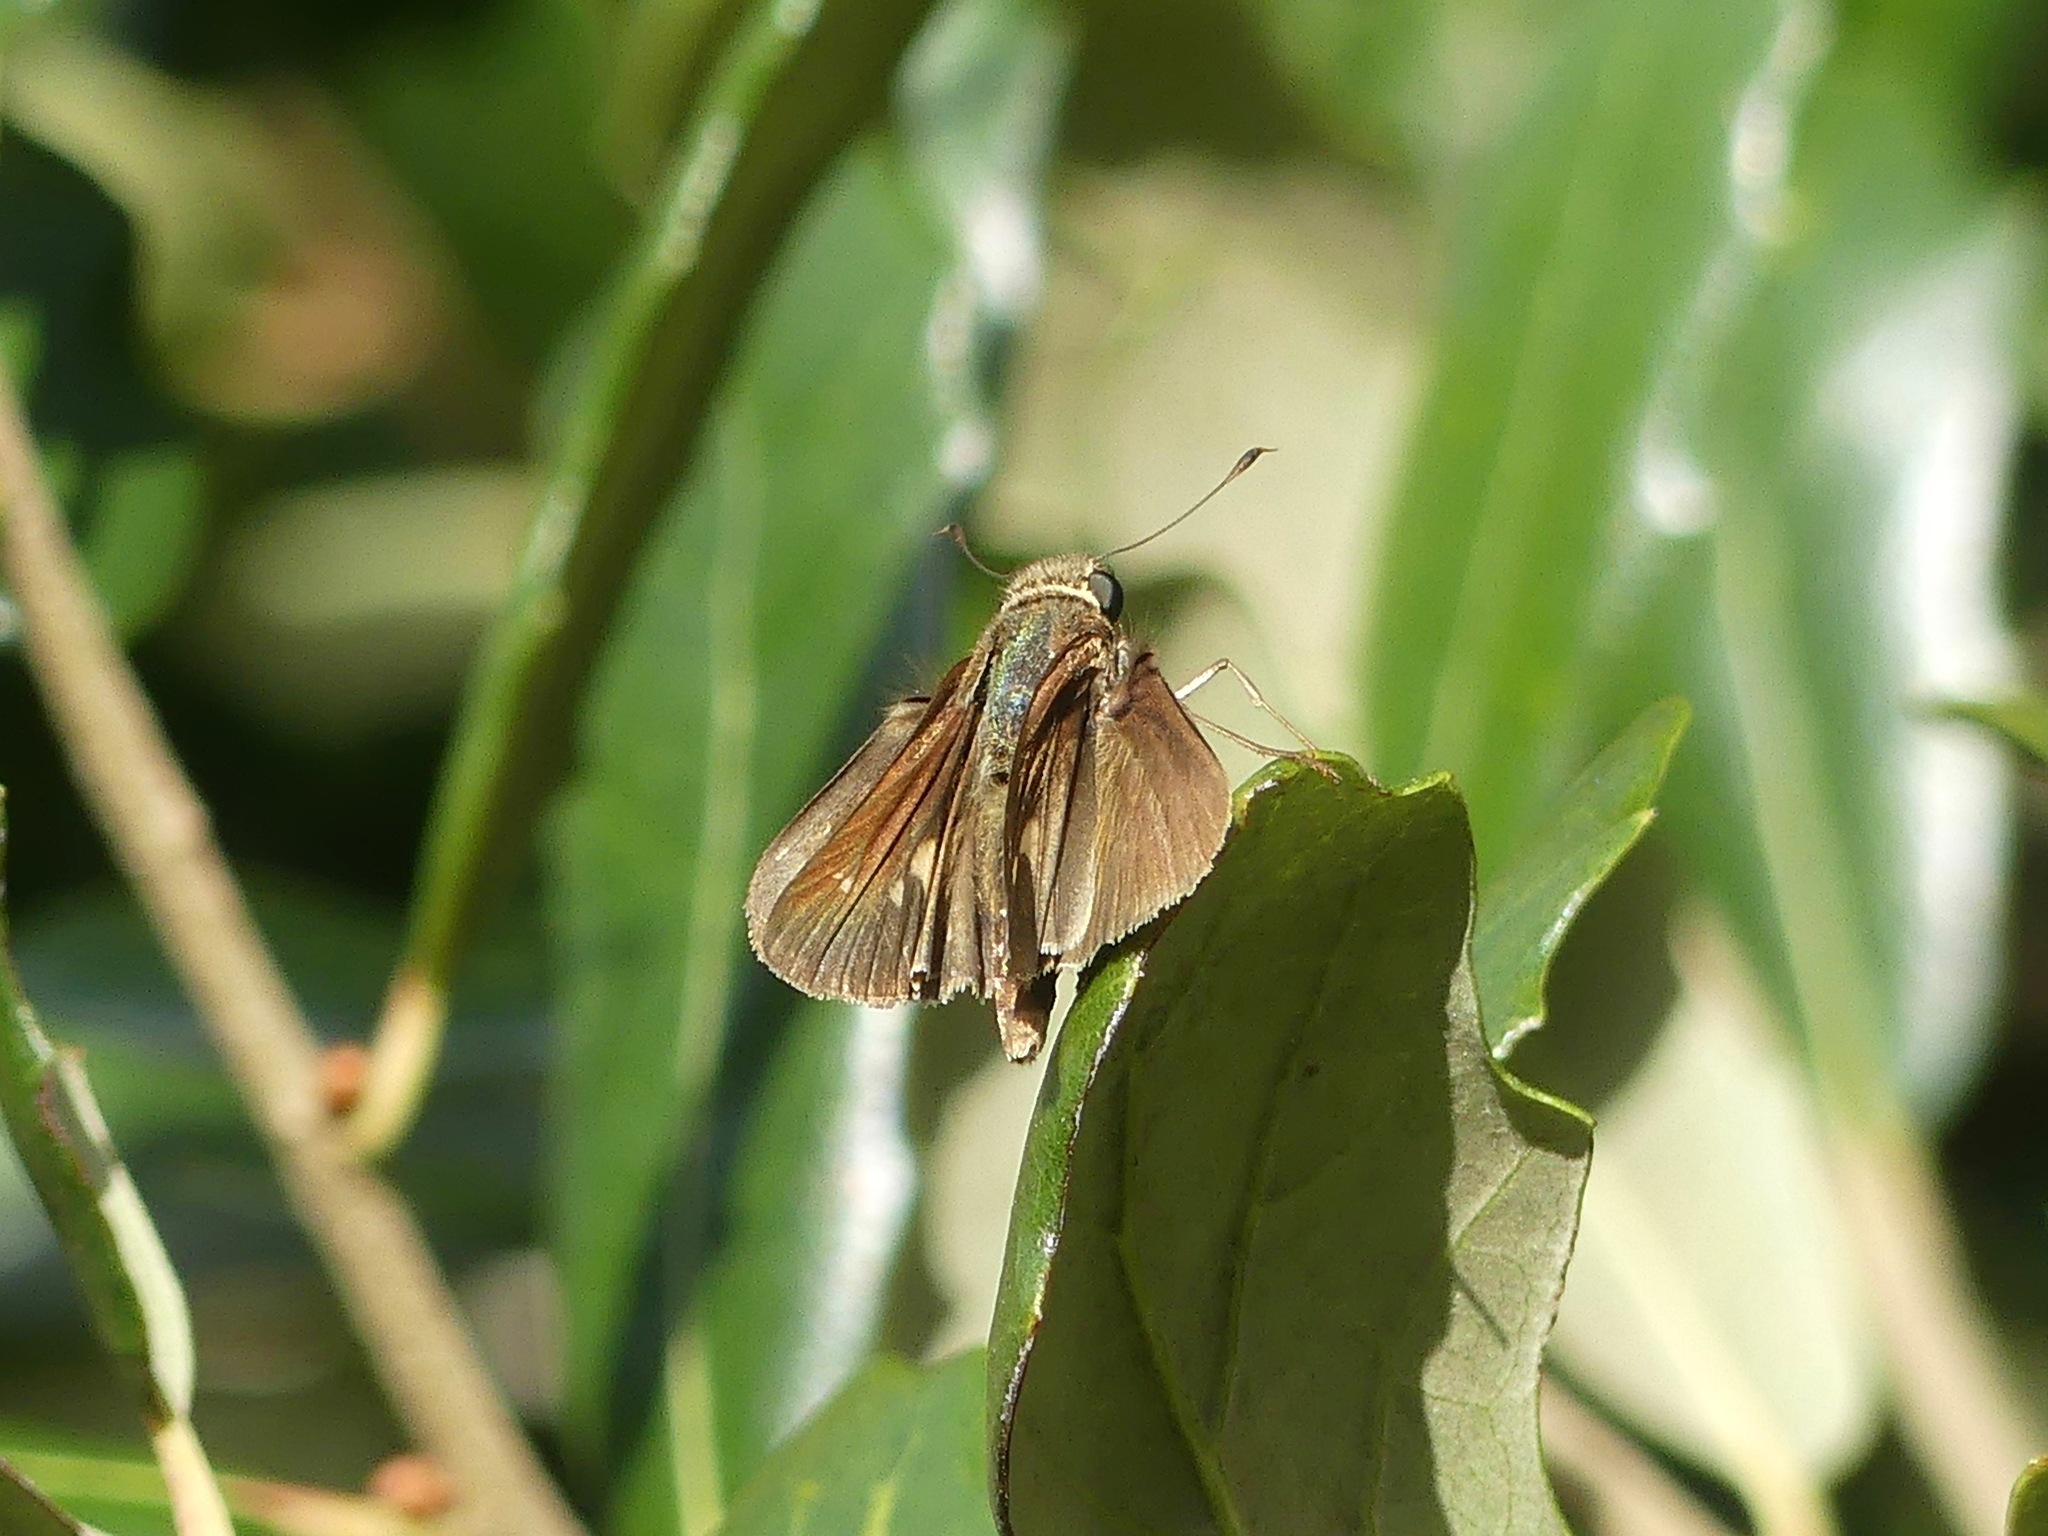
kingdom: Animalia
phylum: Arthropoda
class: Insecta
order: Lepidoptera
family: Hesperiidae
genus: Panoquina
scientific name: Panoquina ocola
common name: Ocola skipper
